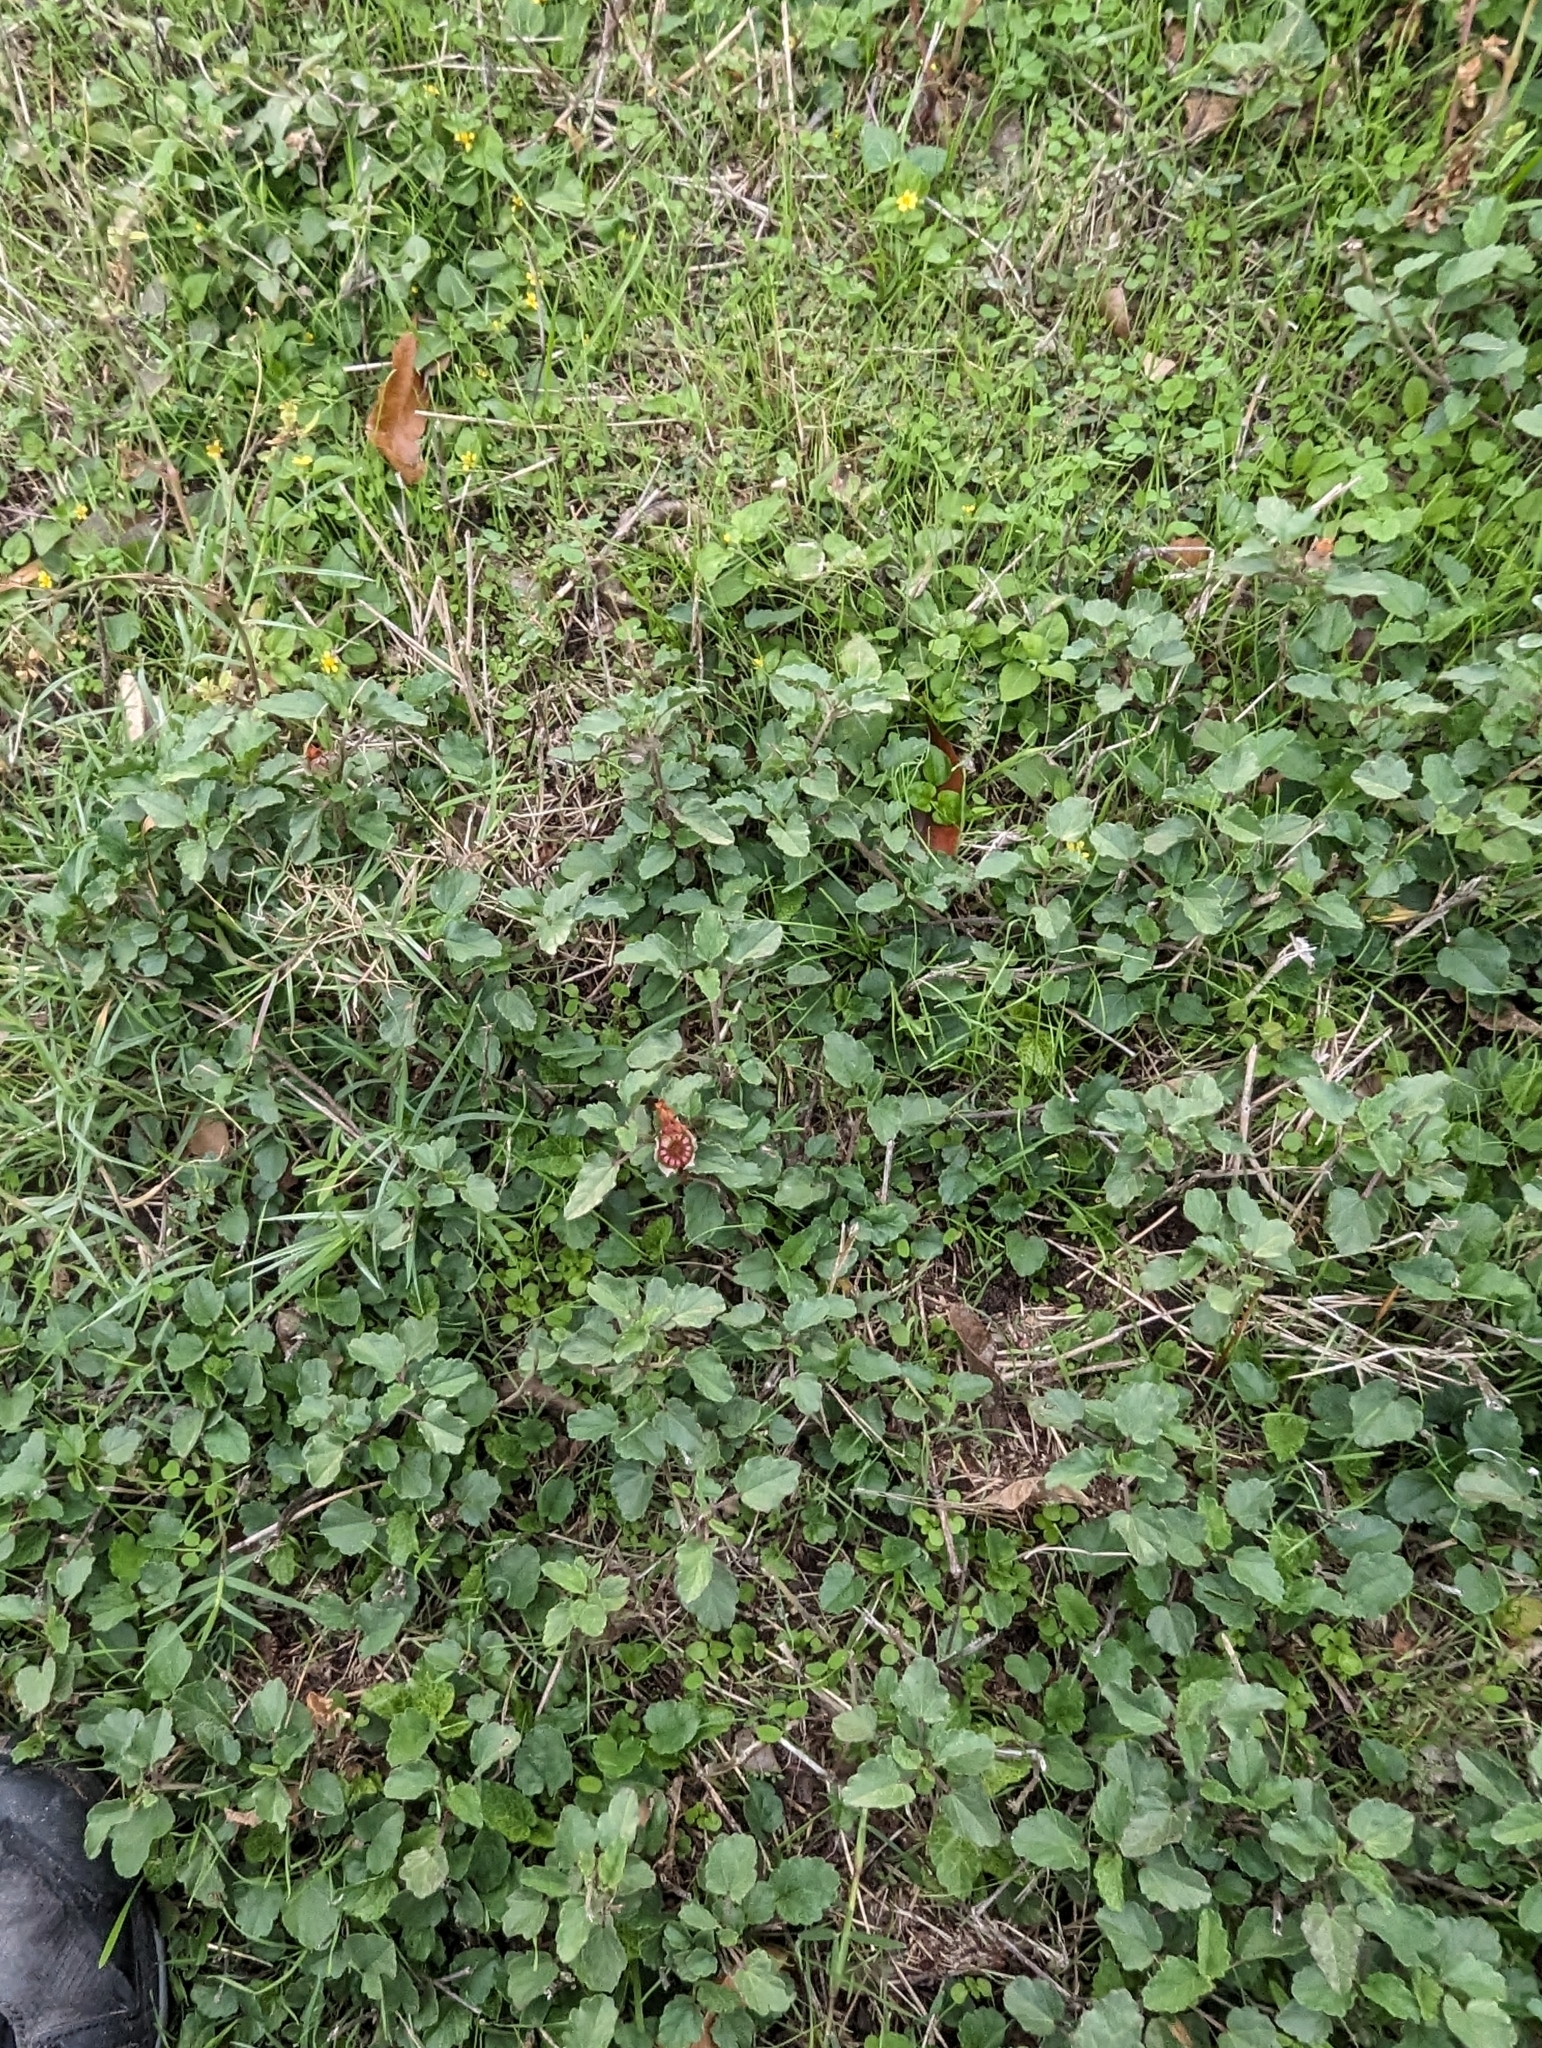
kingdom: Plantae
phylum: Tracheophyta
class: Magnoliopsida
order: Malvales
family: Malvaceae
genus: Malvastrum
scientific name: Malvastrum aurantiacum
